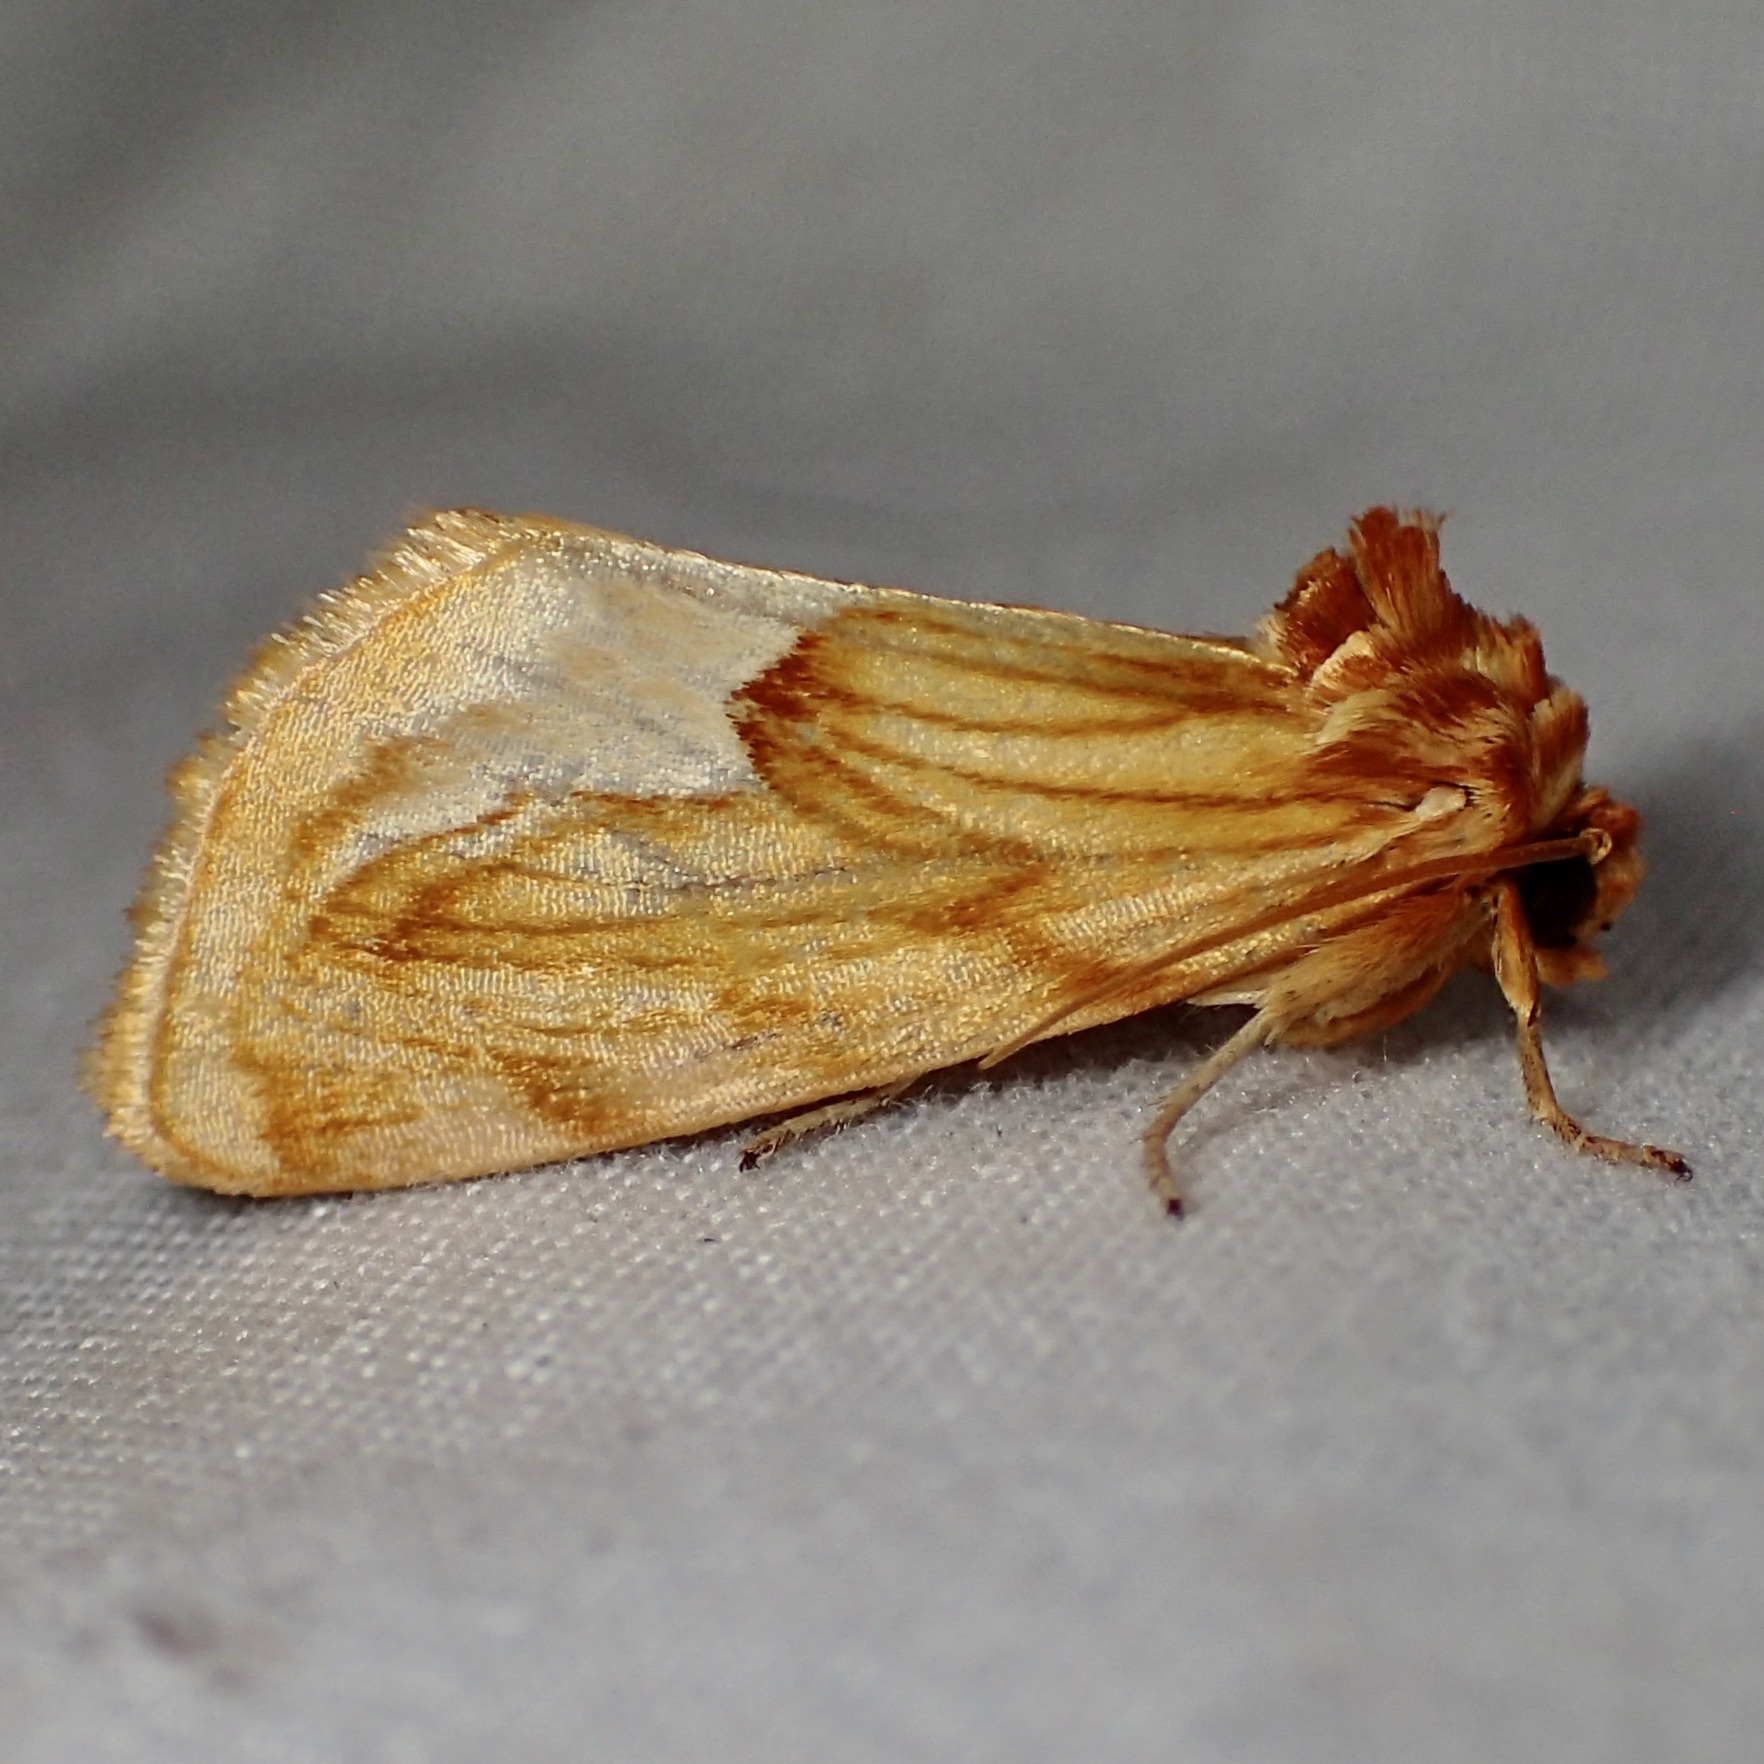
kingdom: Animalia
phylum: Arthropoda
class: Insecta
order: Lepidoptera
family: Noctuidae
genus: Cirrhophanus
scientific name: Cirrhophanus dyari
